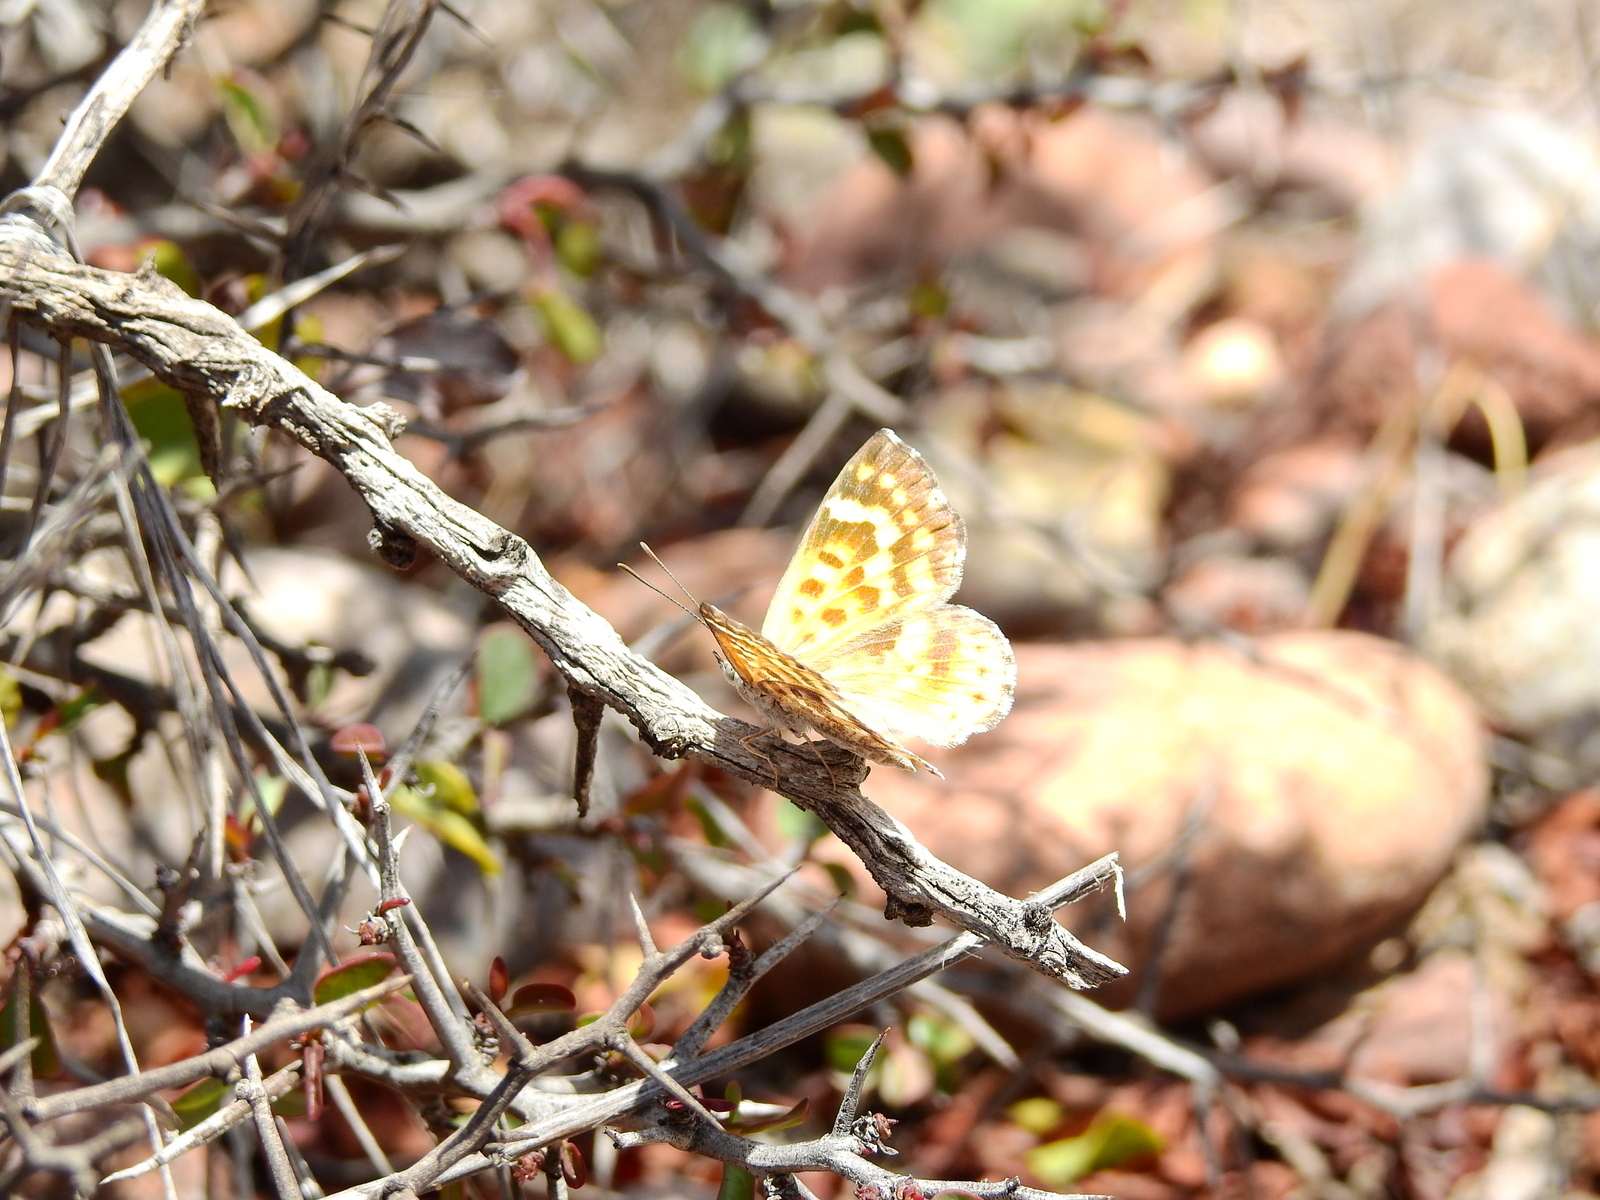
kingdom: Animalia
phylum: Arthropoda
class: Insecta
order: Lepidoptera
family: Lycaenidae
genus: Aricoris
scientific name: Aricoris chilensis
